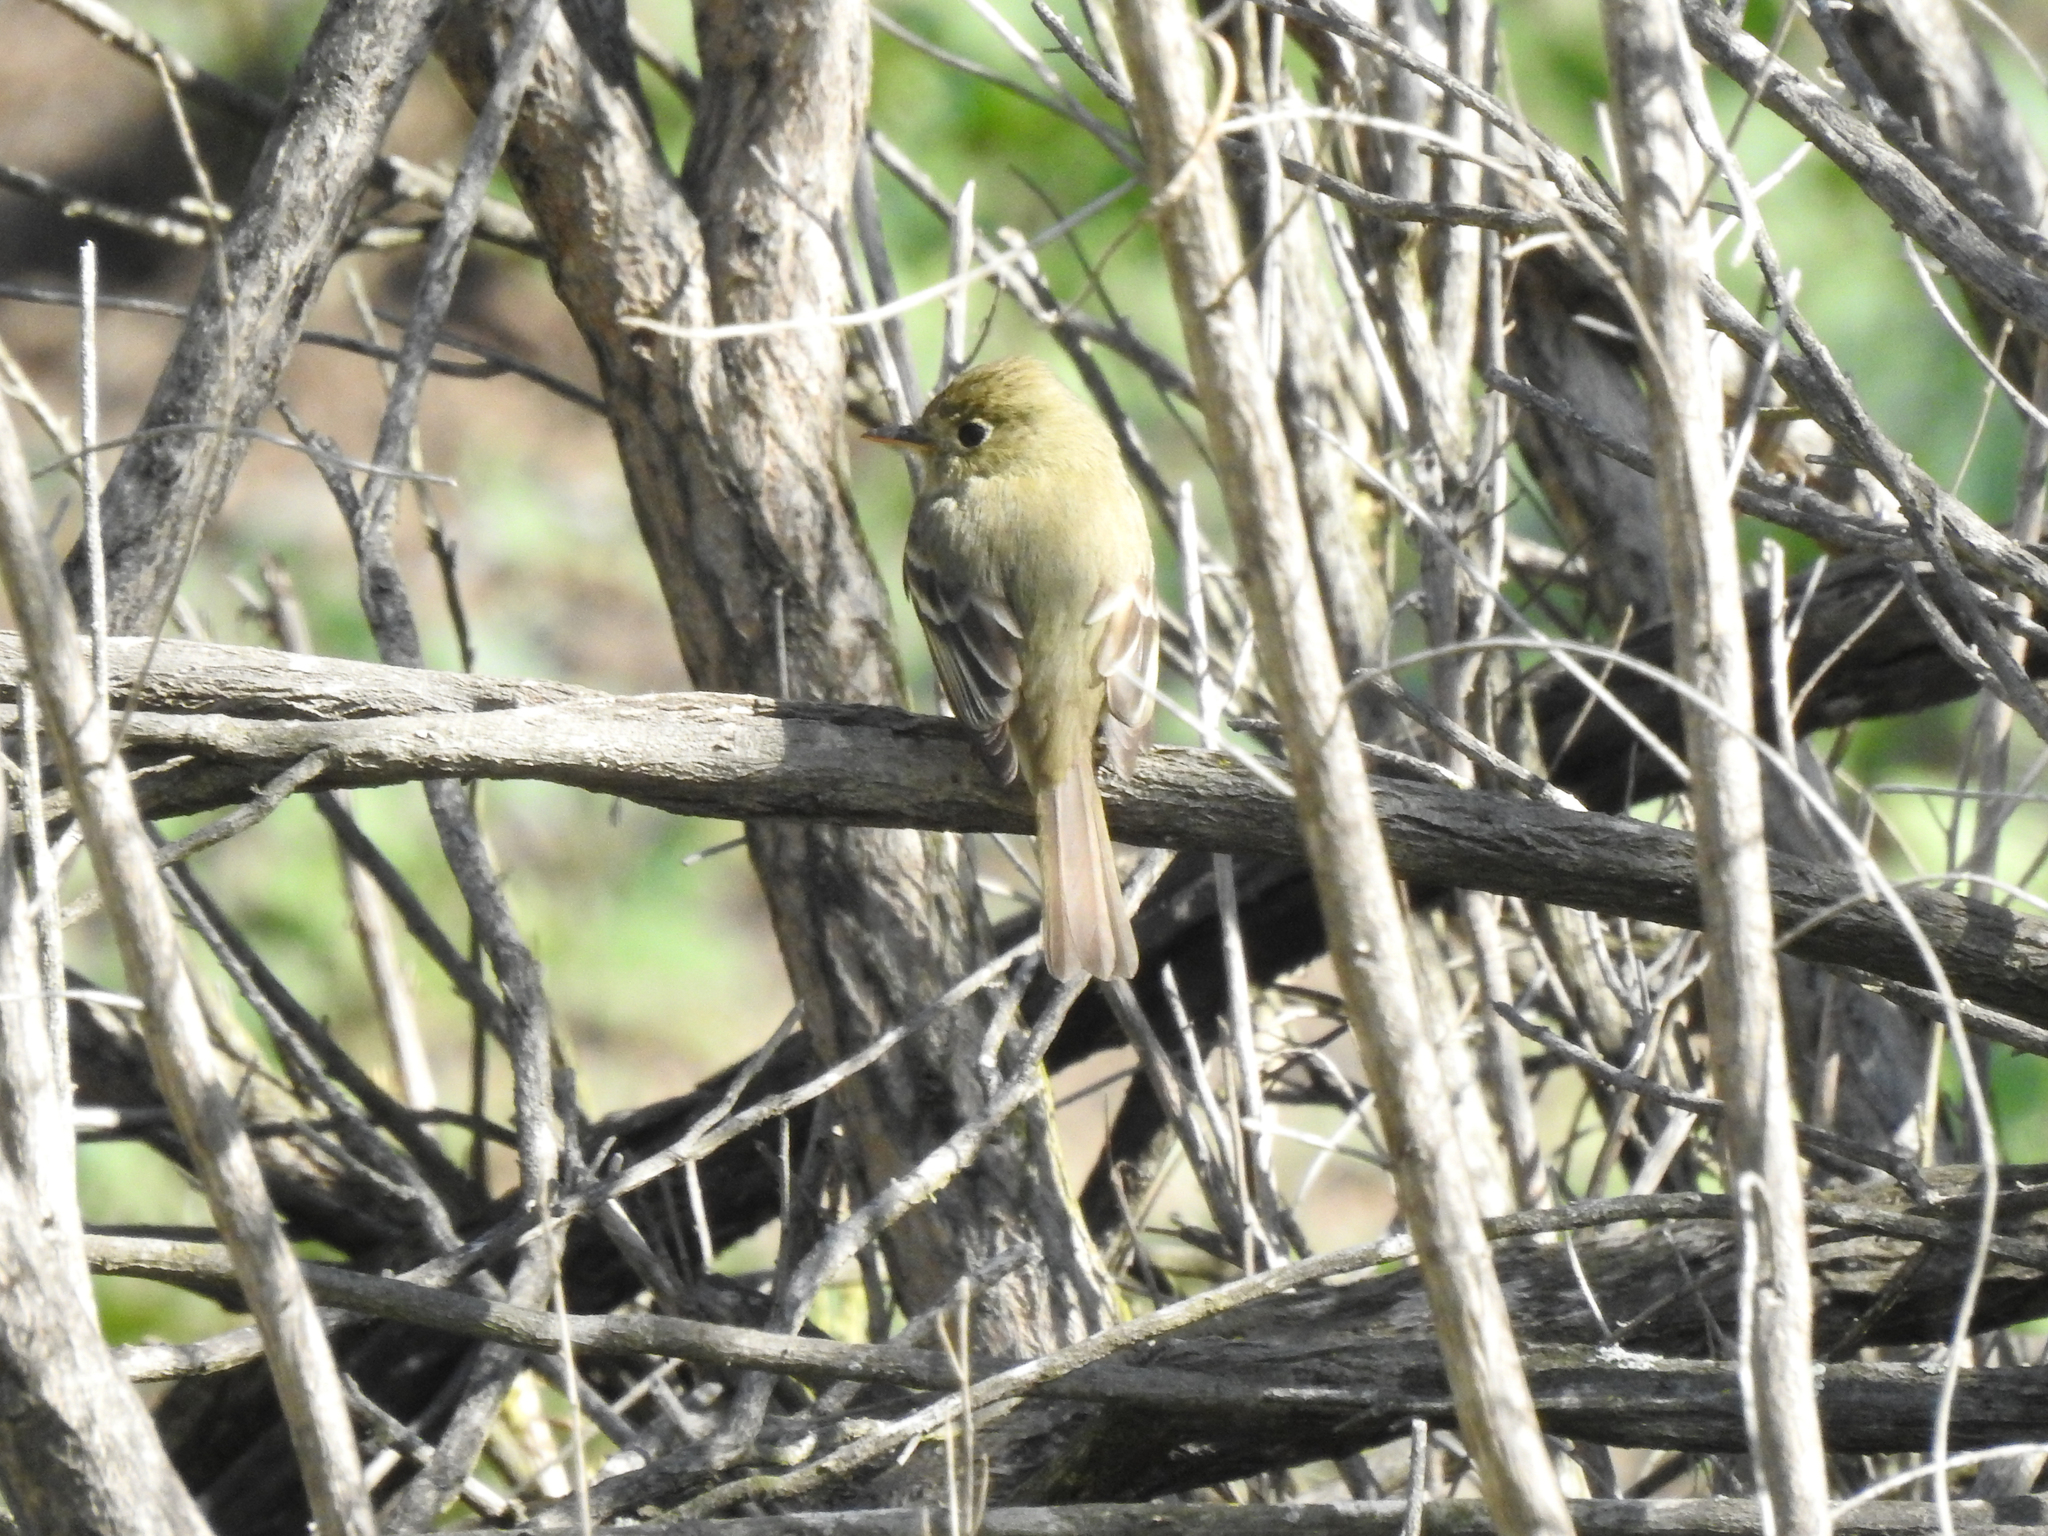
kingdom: Animalia
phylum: Chordata
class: Aves
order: Passeriformes
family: Tyrannidae
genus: Empidonax
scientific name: Empidonax difficilis
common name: Pacific-slope flycatcher
